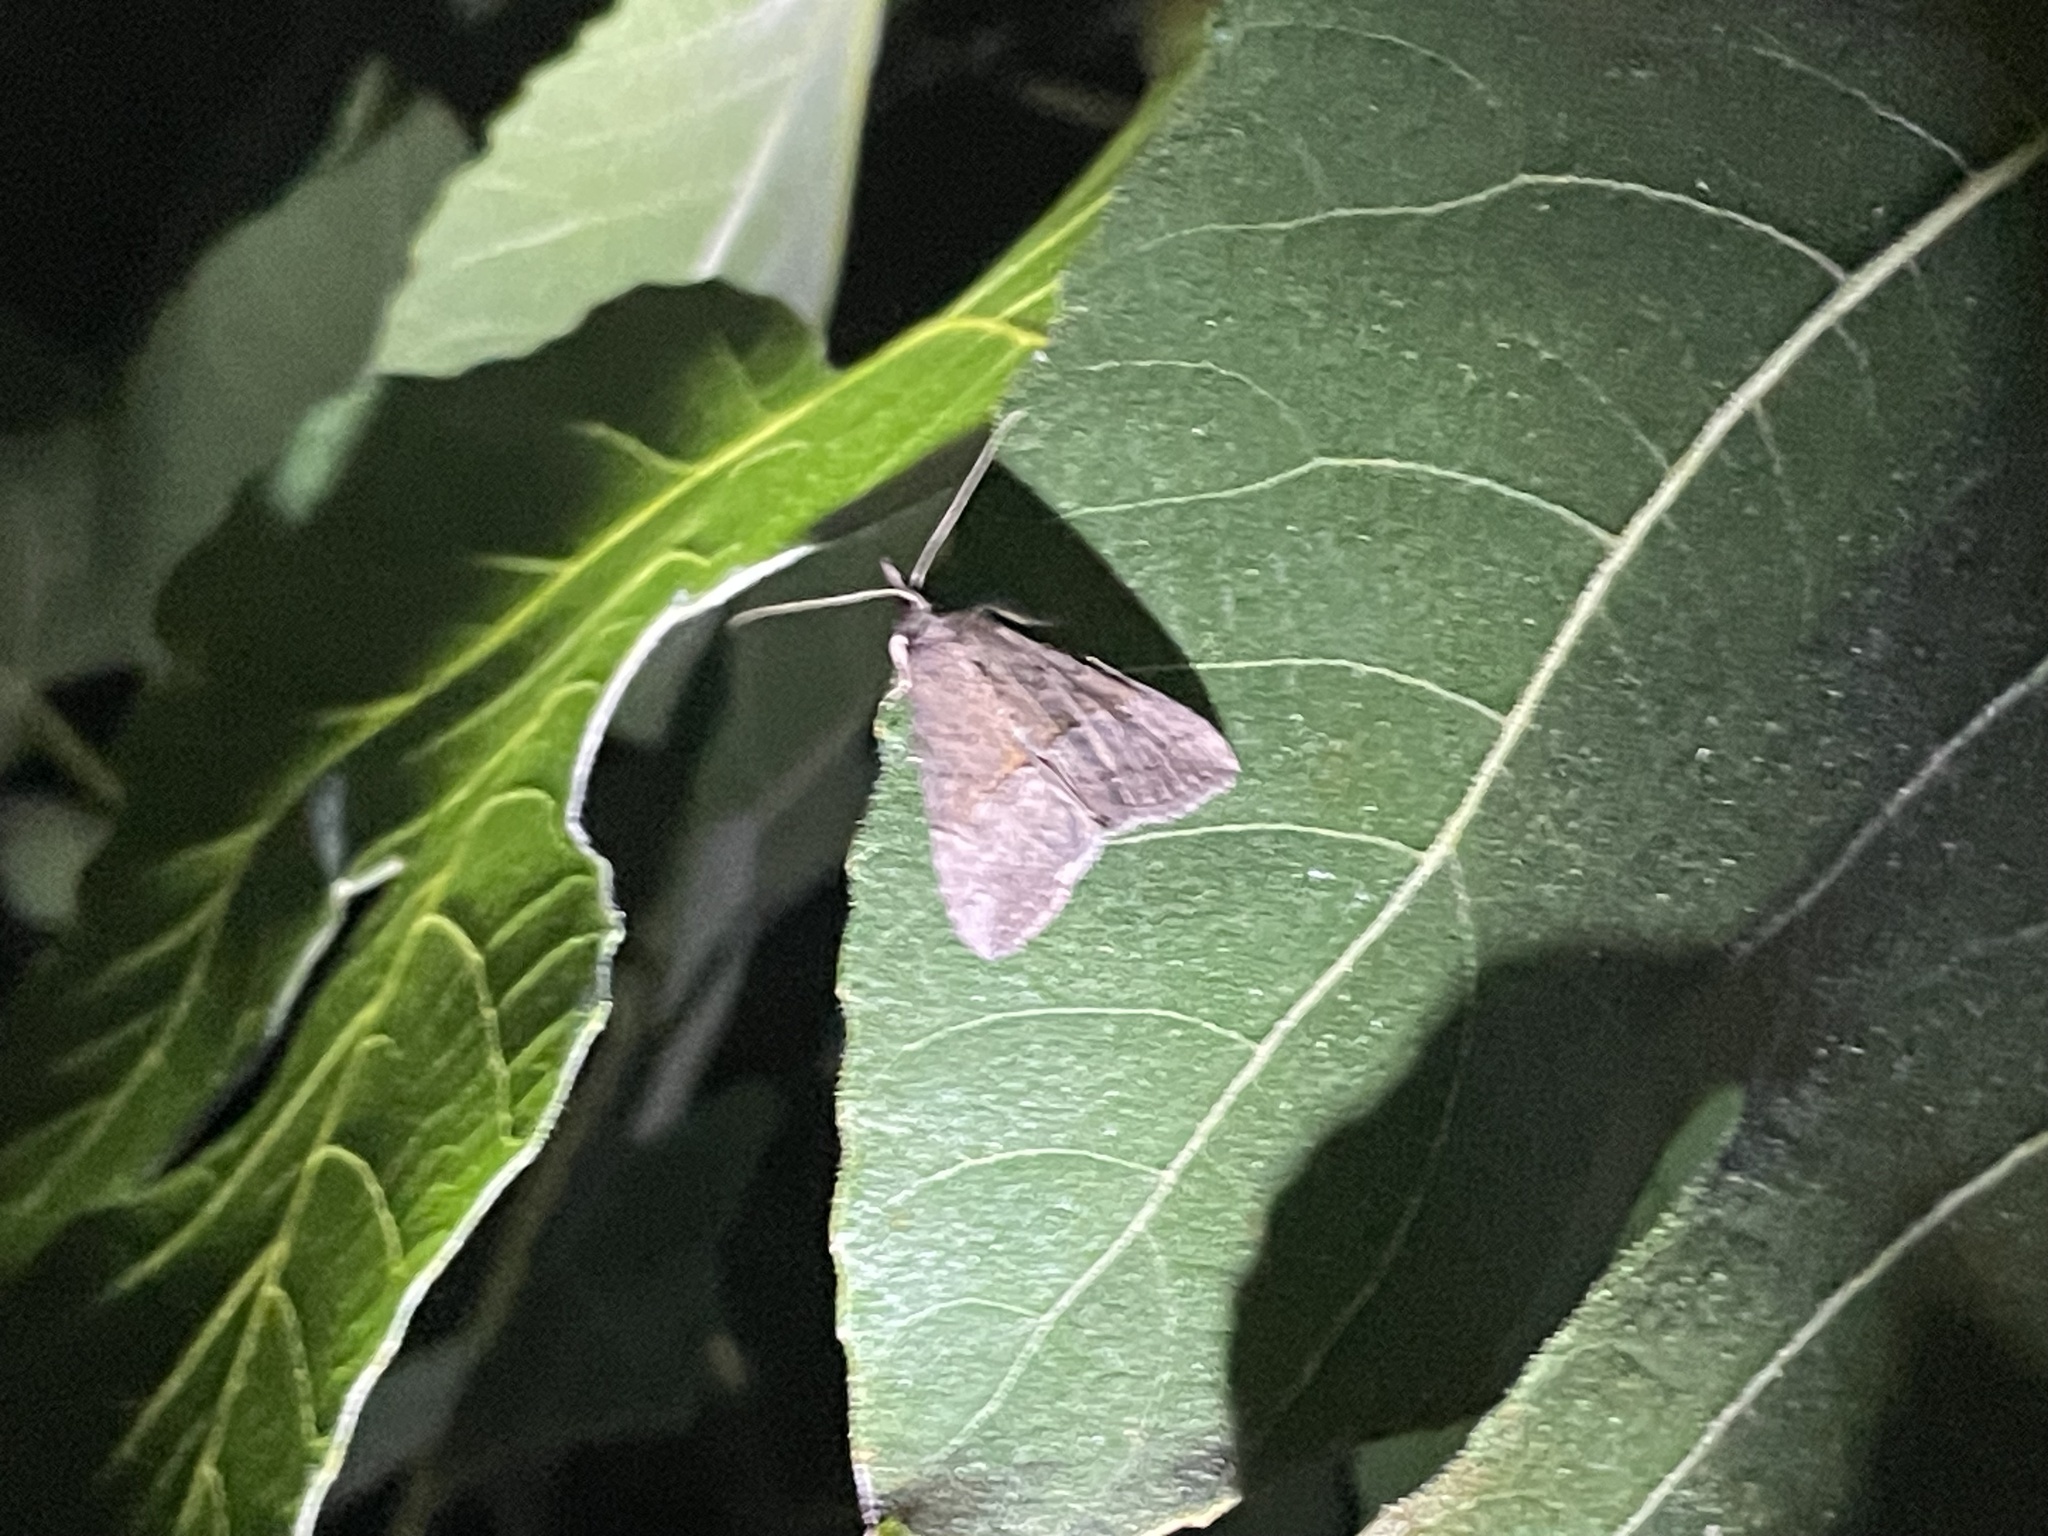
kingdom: Animalia
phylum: Arthropoda
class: Insecta
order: Lepidoptera
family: Erebidae
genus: Hypena
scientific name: Hypena scabra
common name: Green cloverworm
